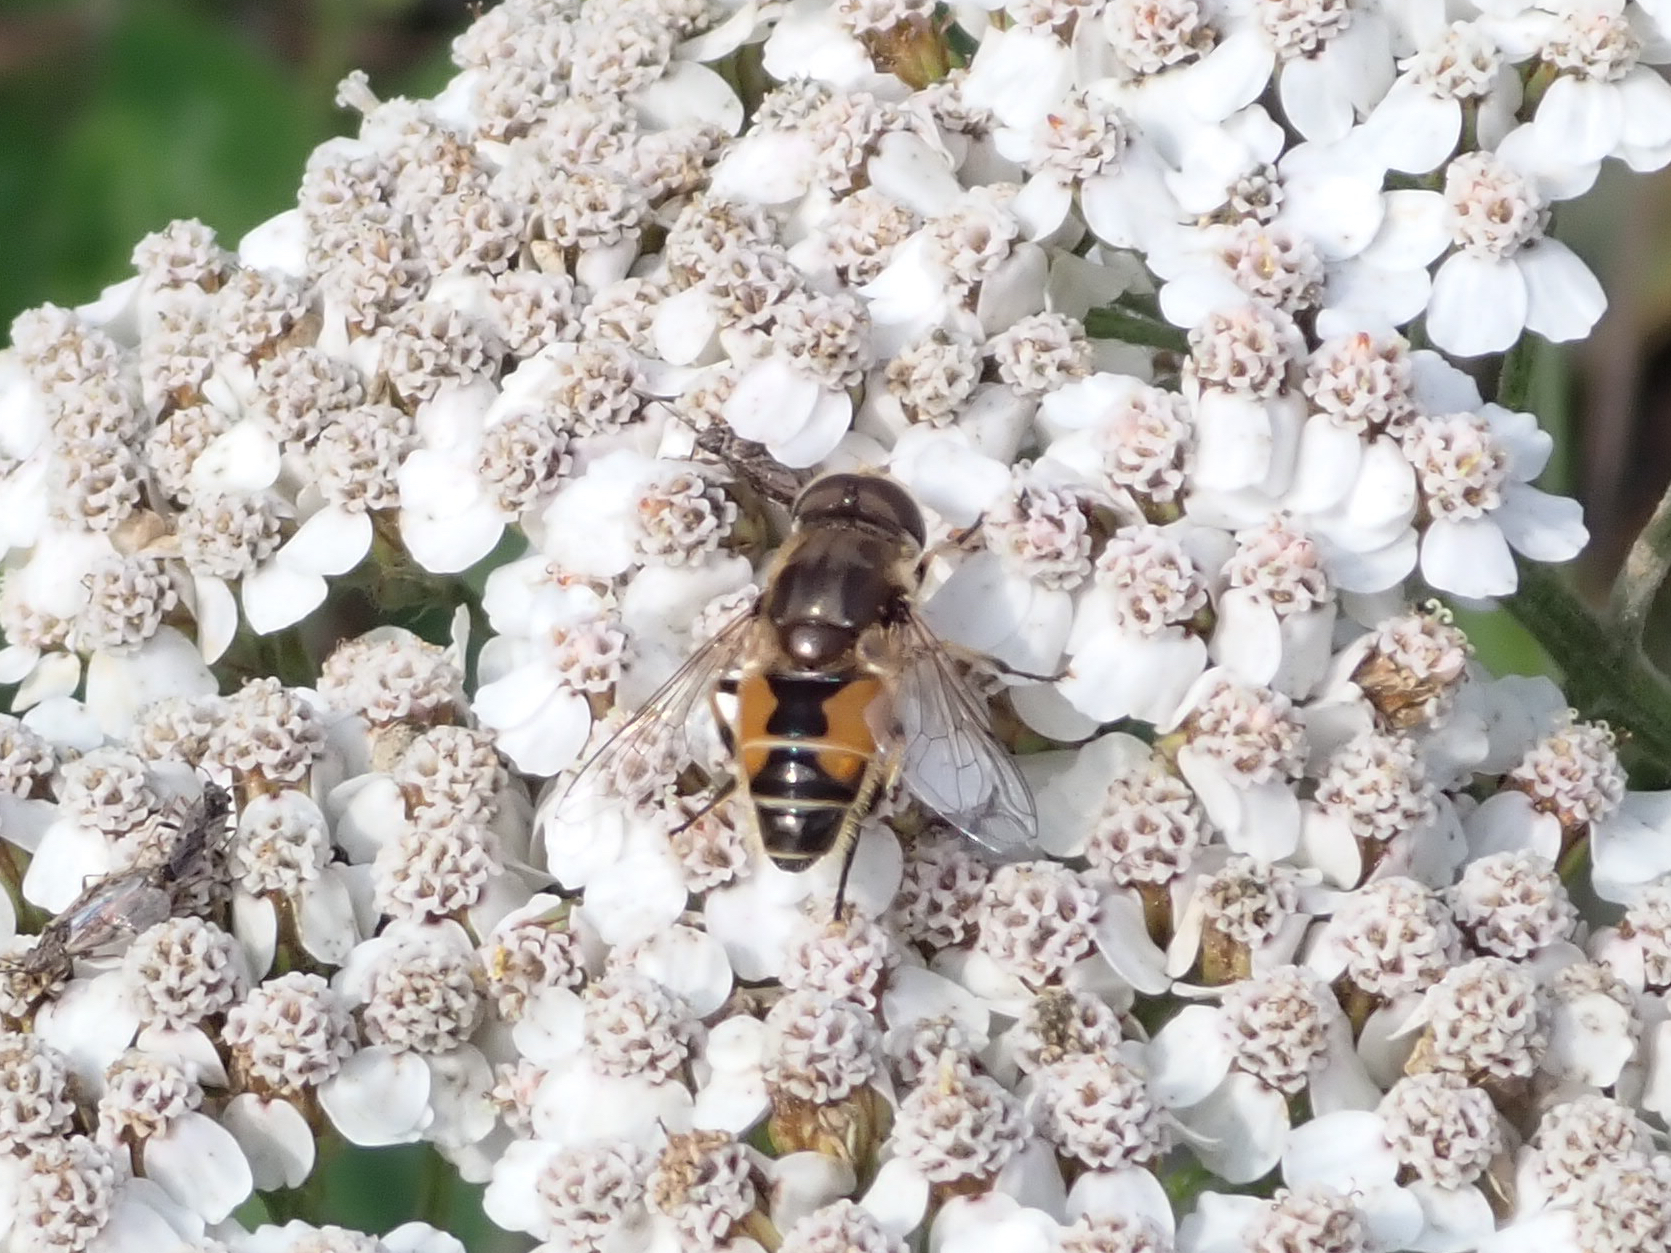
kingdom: Animalia
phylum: Arthropoda
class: Insecta
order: Diptera
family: Syrphidae
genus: Eristalis
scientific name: Eristalis arbustorum
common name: Hover fly
